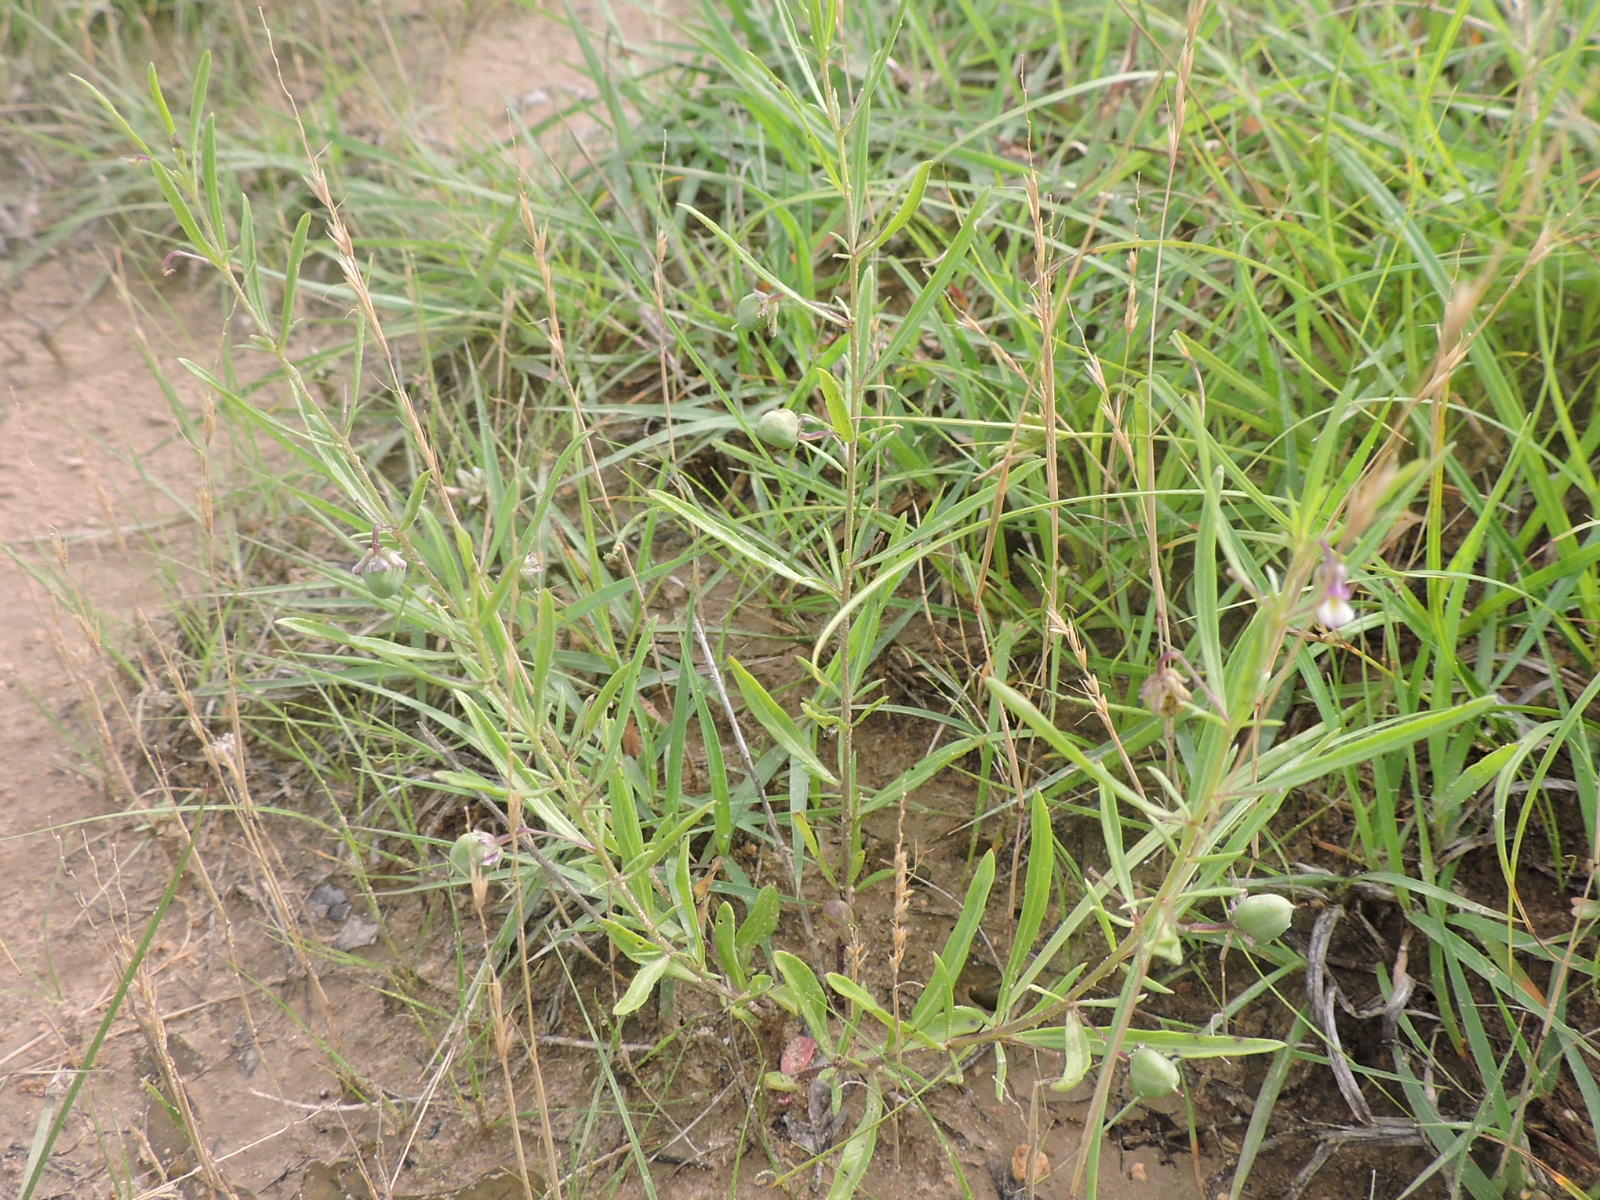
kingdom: Plantae
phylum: Tracheophyta
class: Magnoliopsida
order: Malpighiales
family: Violaceae
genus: Pombalia
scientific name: Pombalia verticillata
